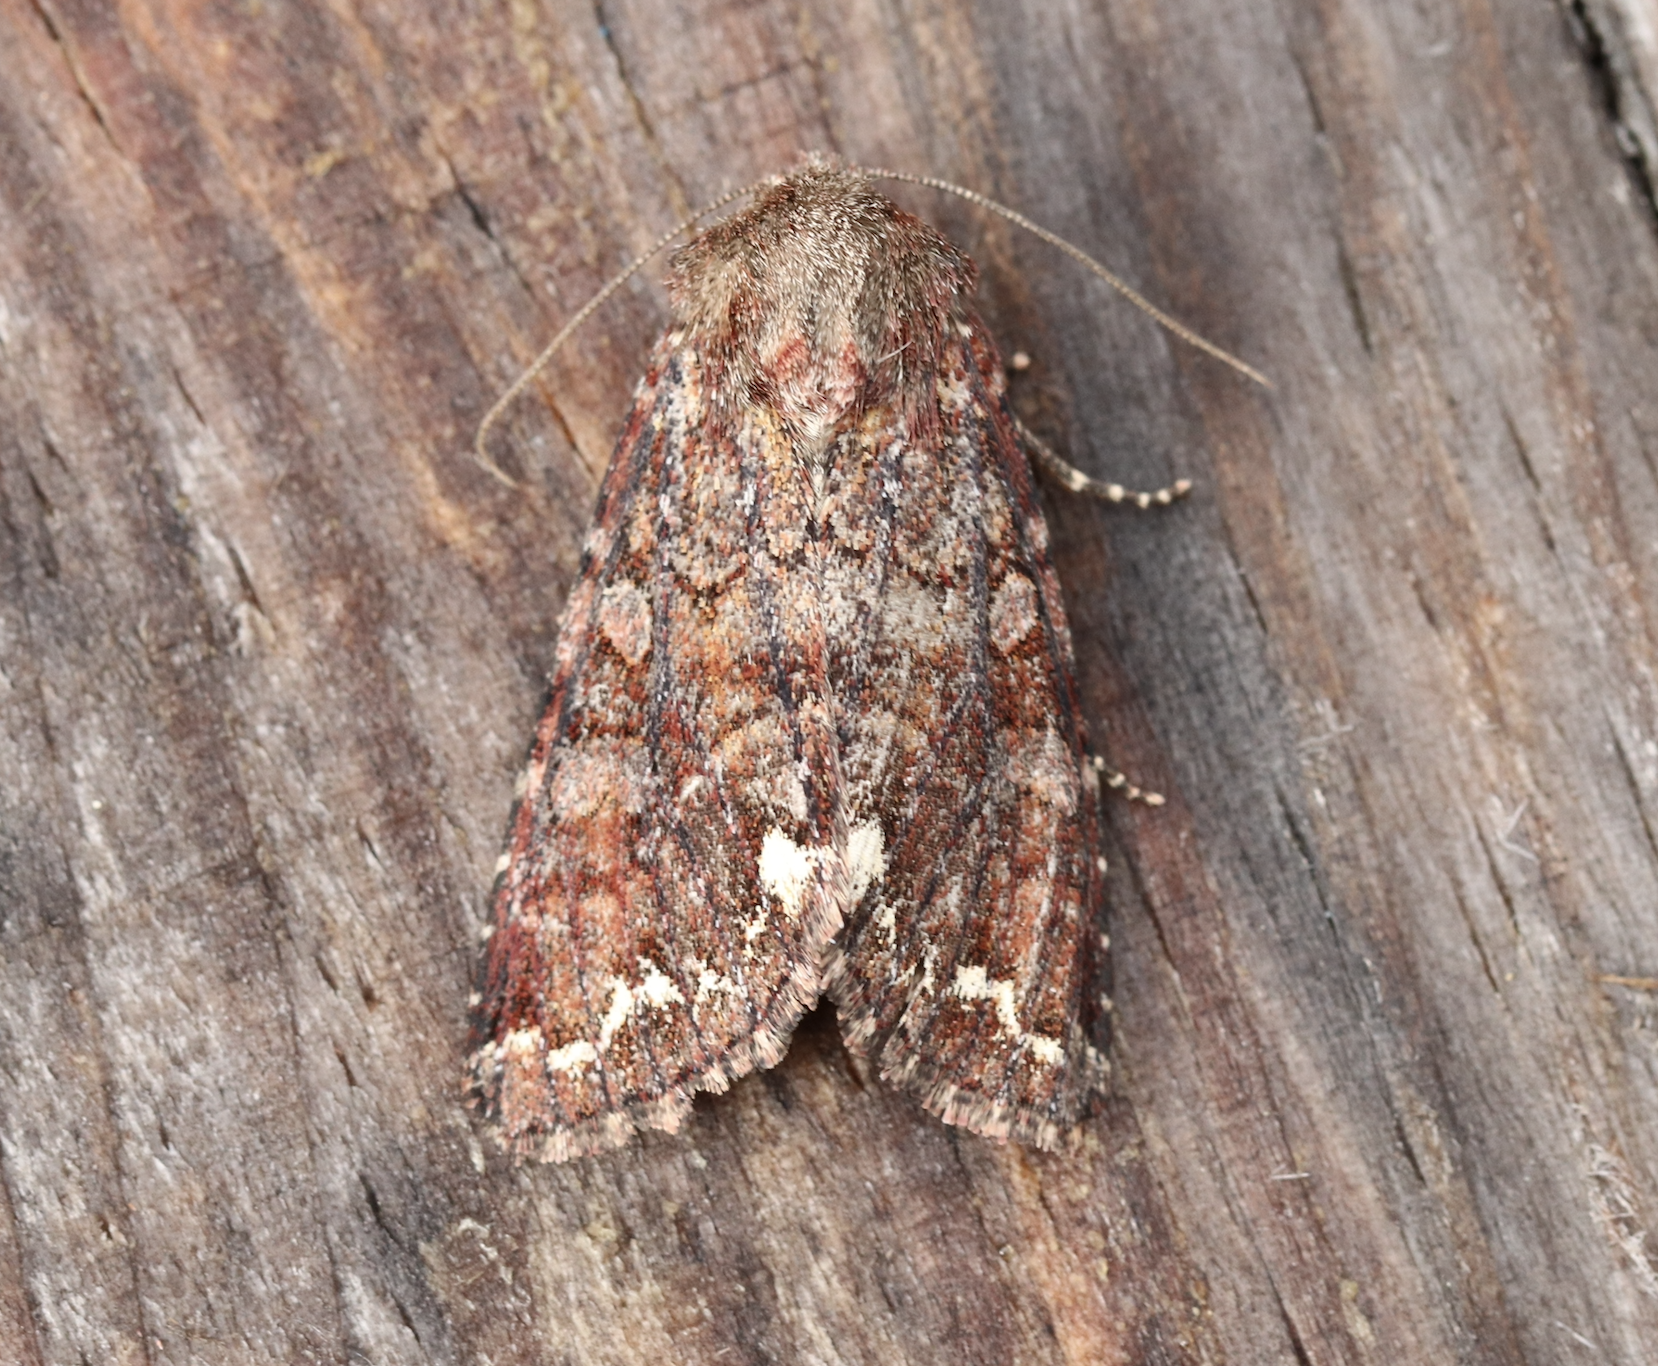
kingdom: Animalia
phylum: Arthropoda
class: Insecta
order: Lepidoptera
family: Noctuidae
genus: Ceramica
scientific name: Ceramica pisi
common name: Broom moth
